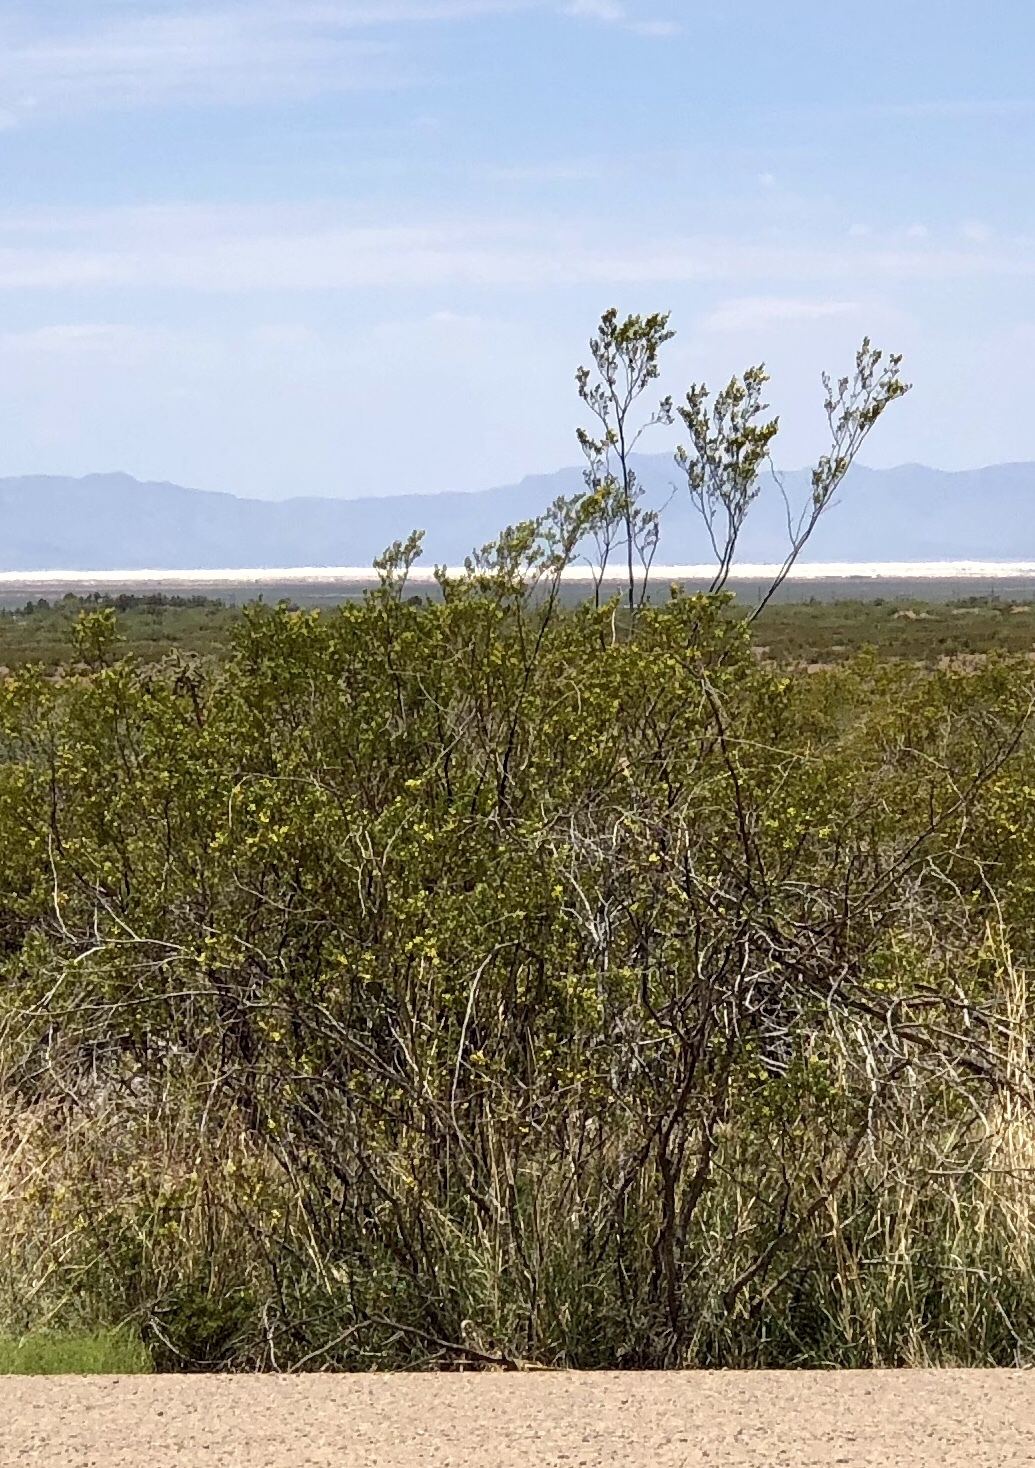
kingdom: Plantae
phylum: Tracheophyta
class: Magnoliopsida
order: Zygophyllales
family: Zygophyllaceae
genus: Larrea
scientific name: Larrea tridentata
